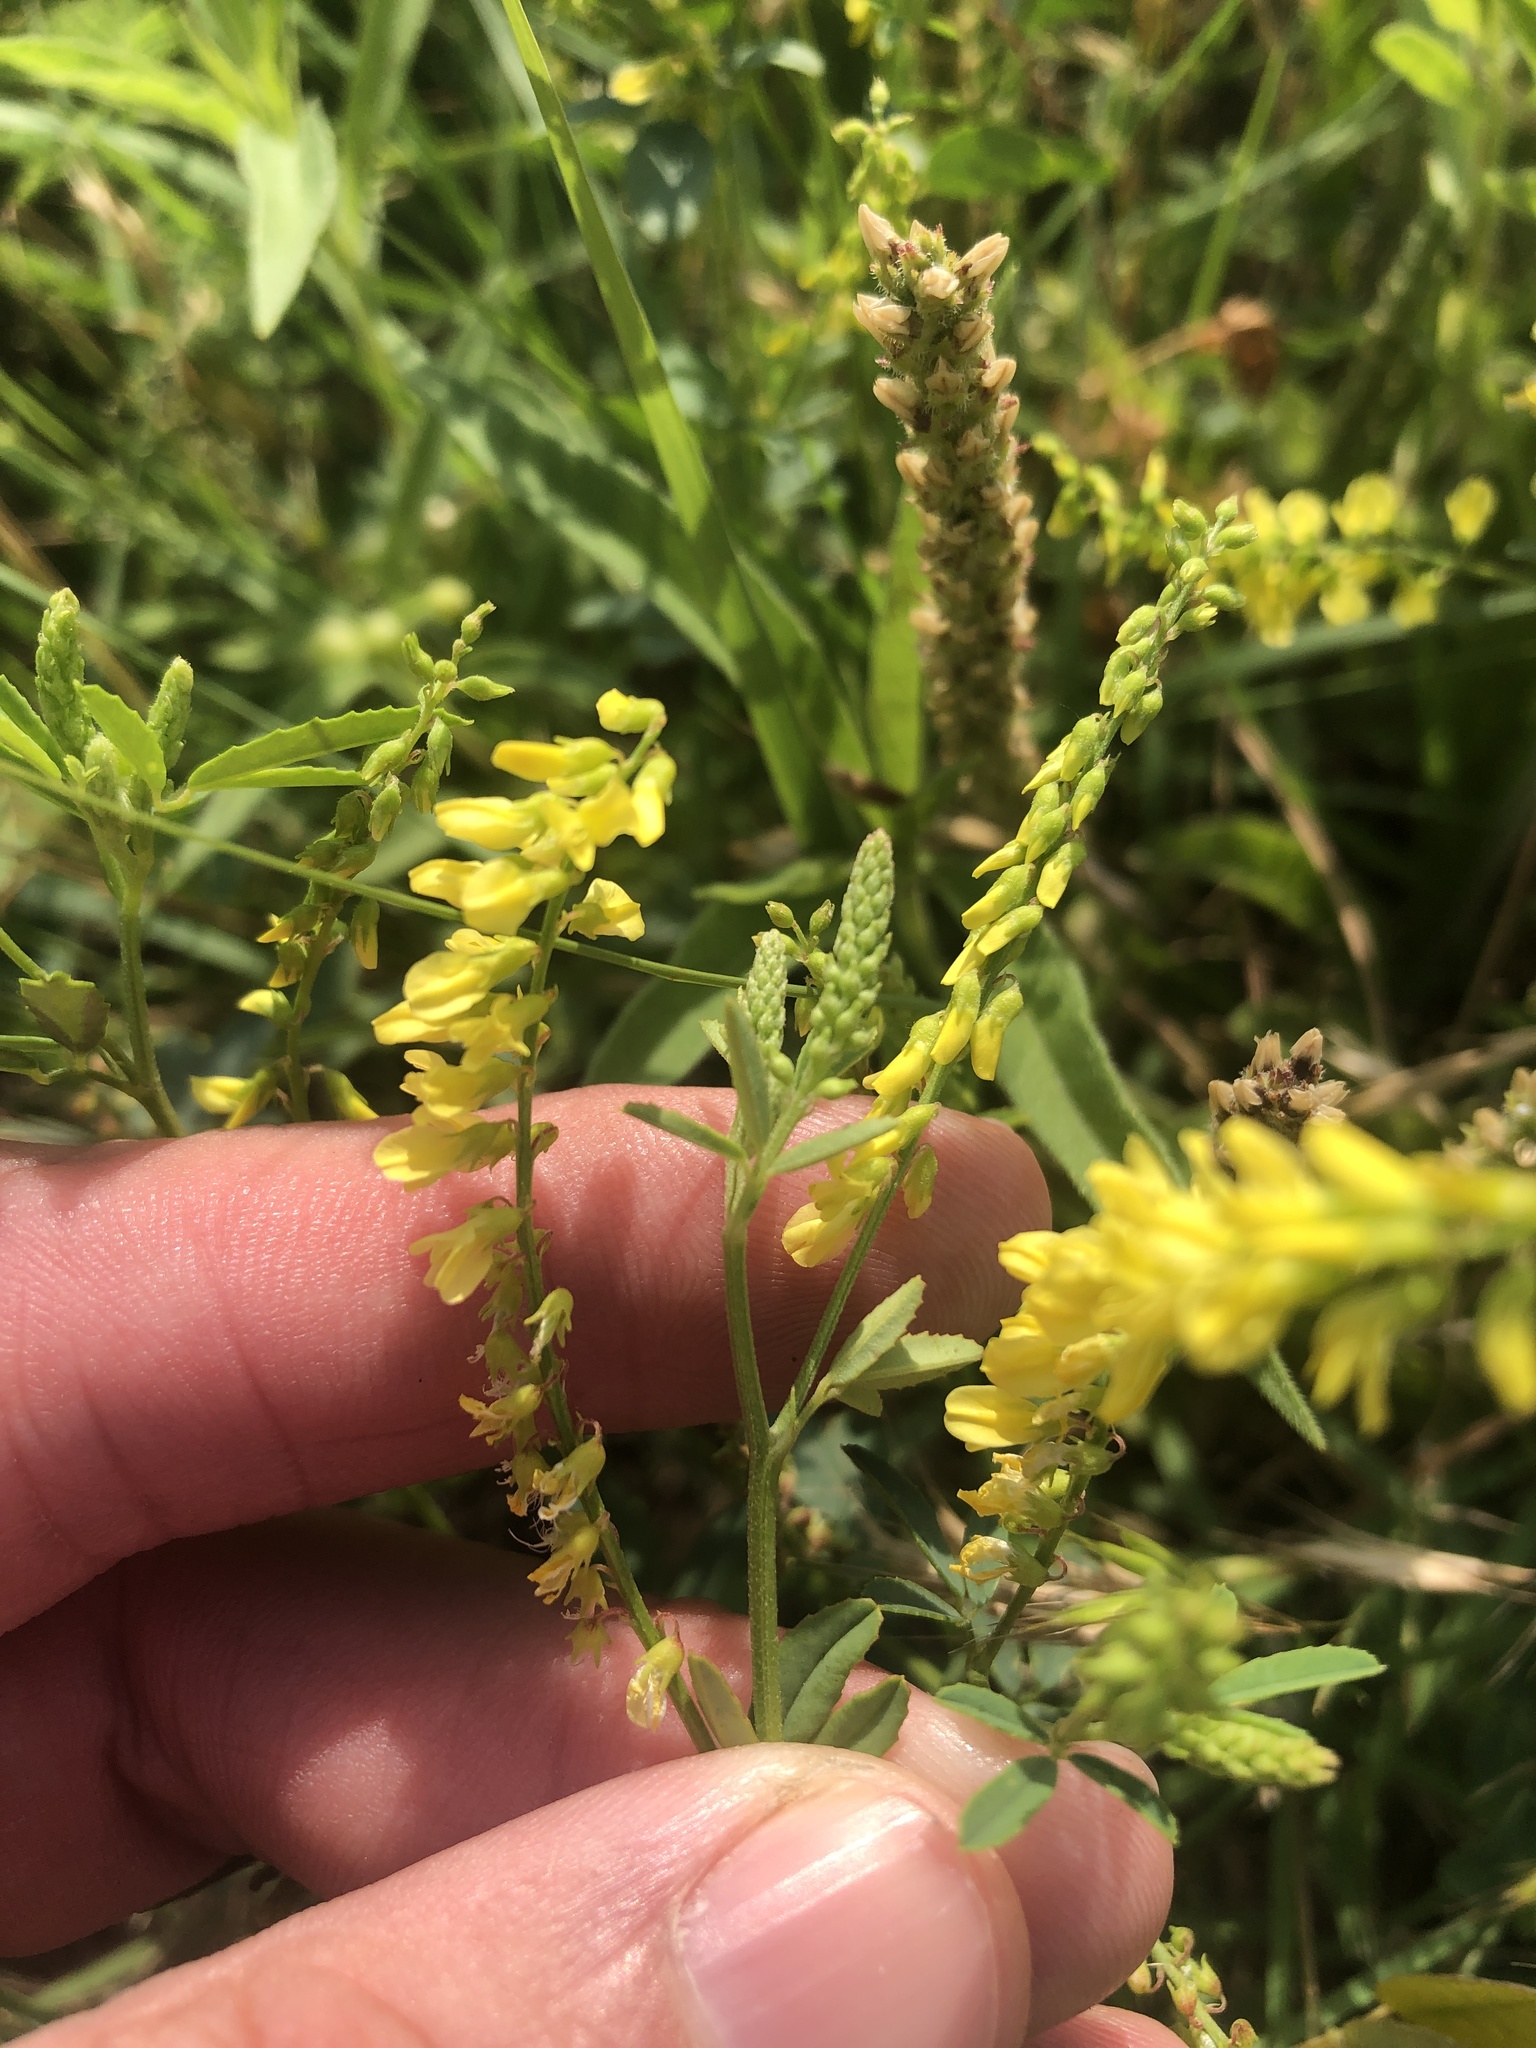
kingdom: Plantae
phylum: Tracheophyta
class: Magnoliopsida
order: Fabales
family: Fabaceae
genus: Melilotus
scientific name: Melilotus officinalis
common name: Sweetclover
